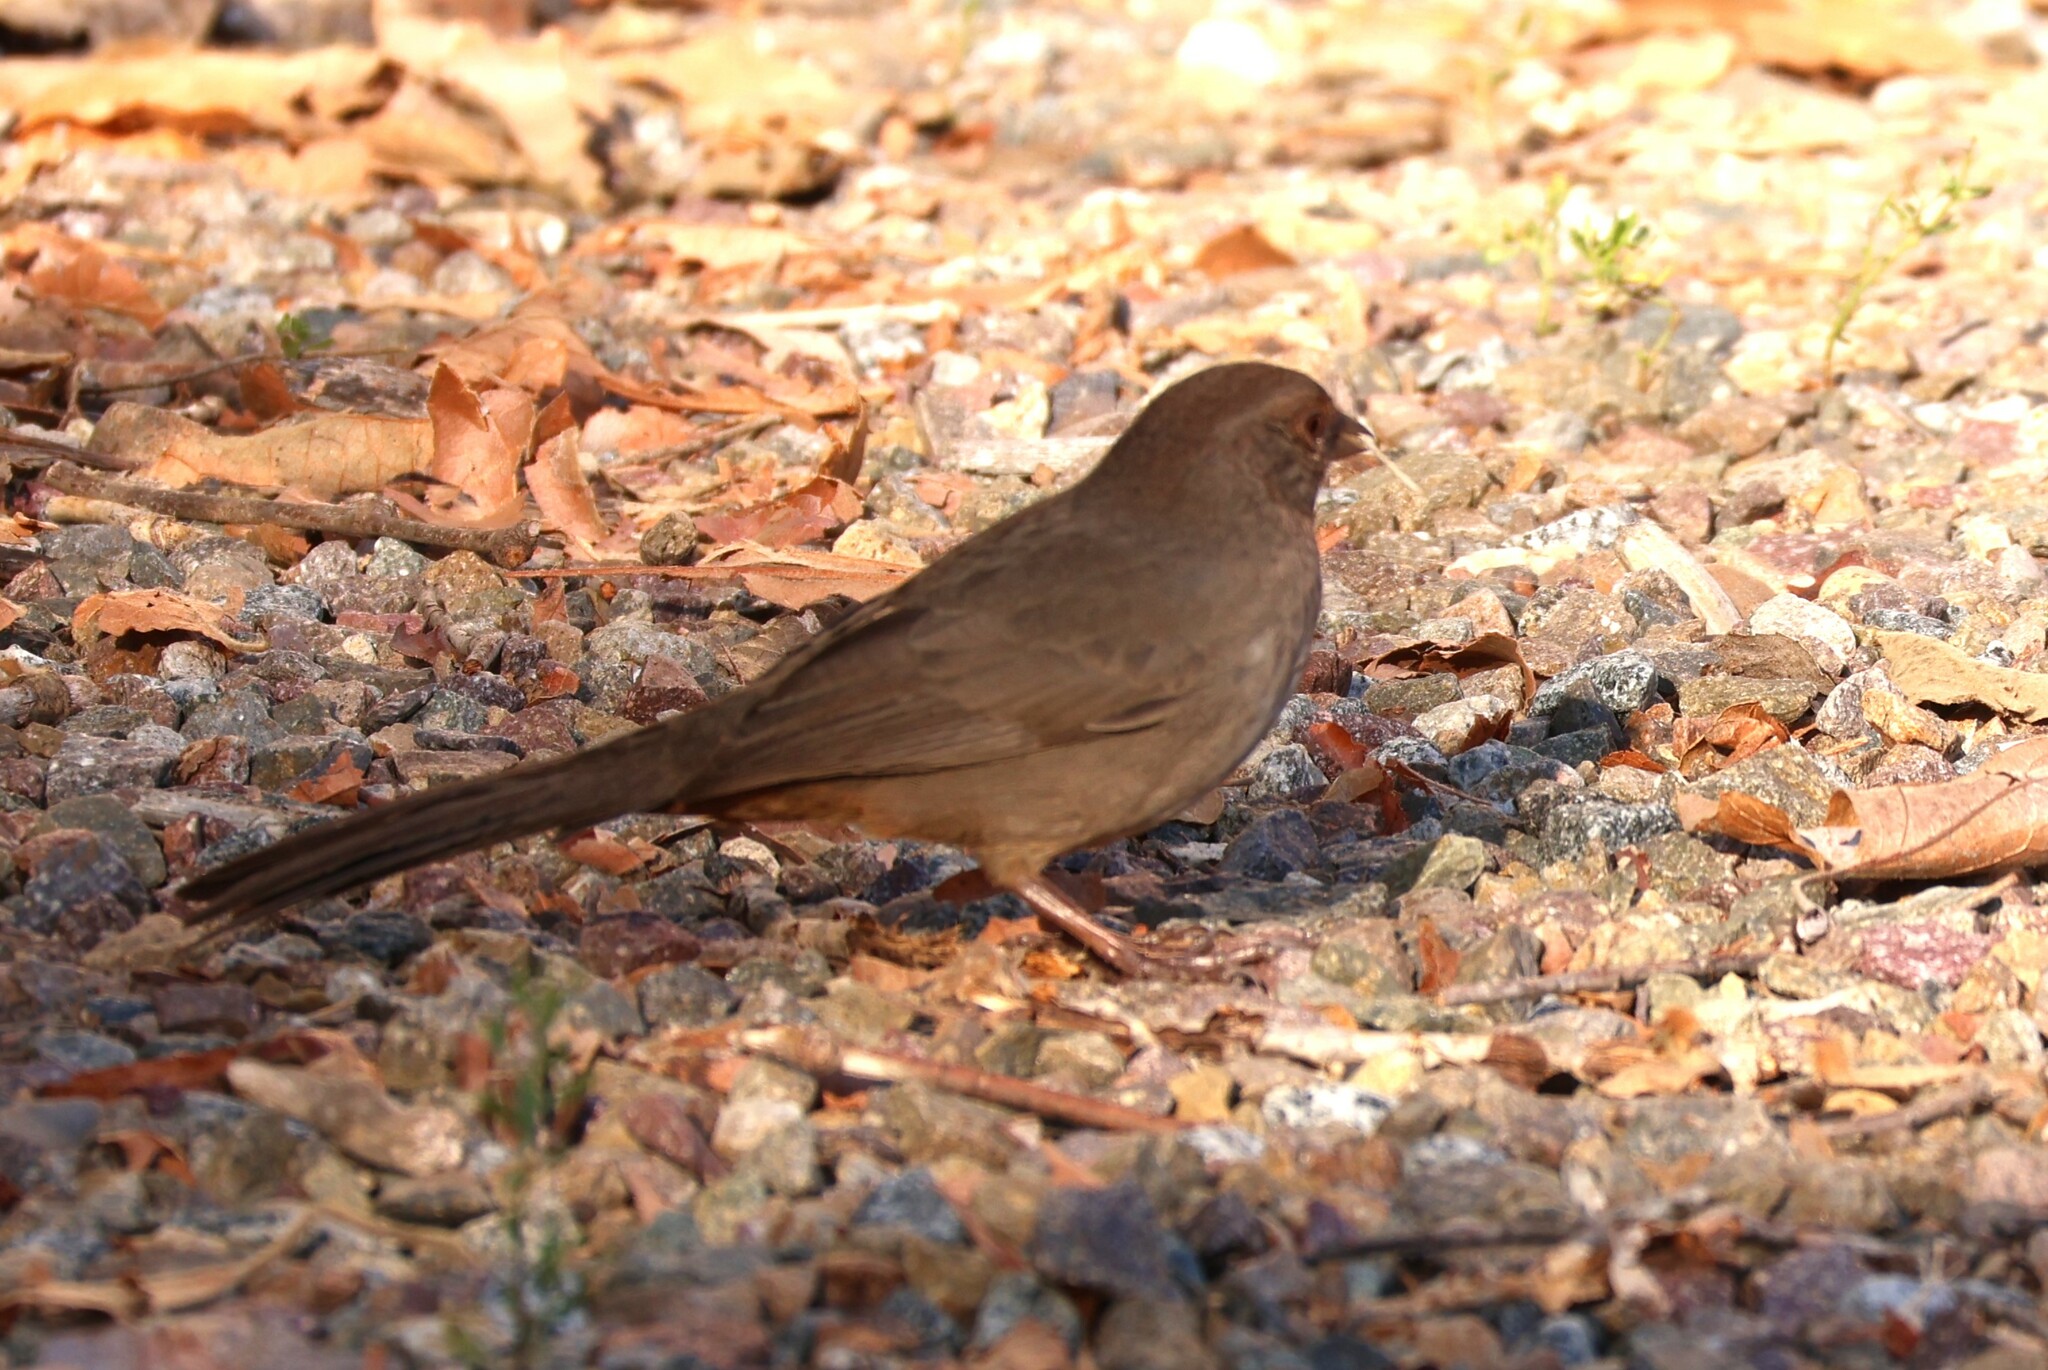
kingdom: Animalia
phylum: Chordata
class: Aves
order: Passeriformes
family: Passerellidae
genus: Melozone
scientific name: Melozone crissalis
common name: California towhee
